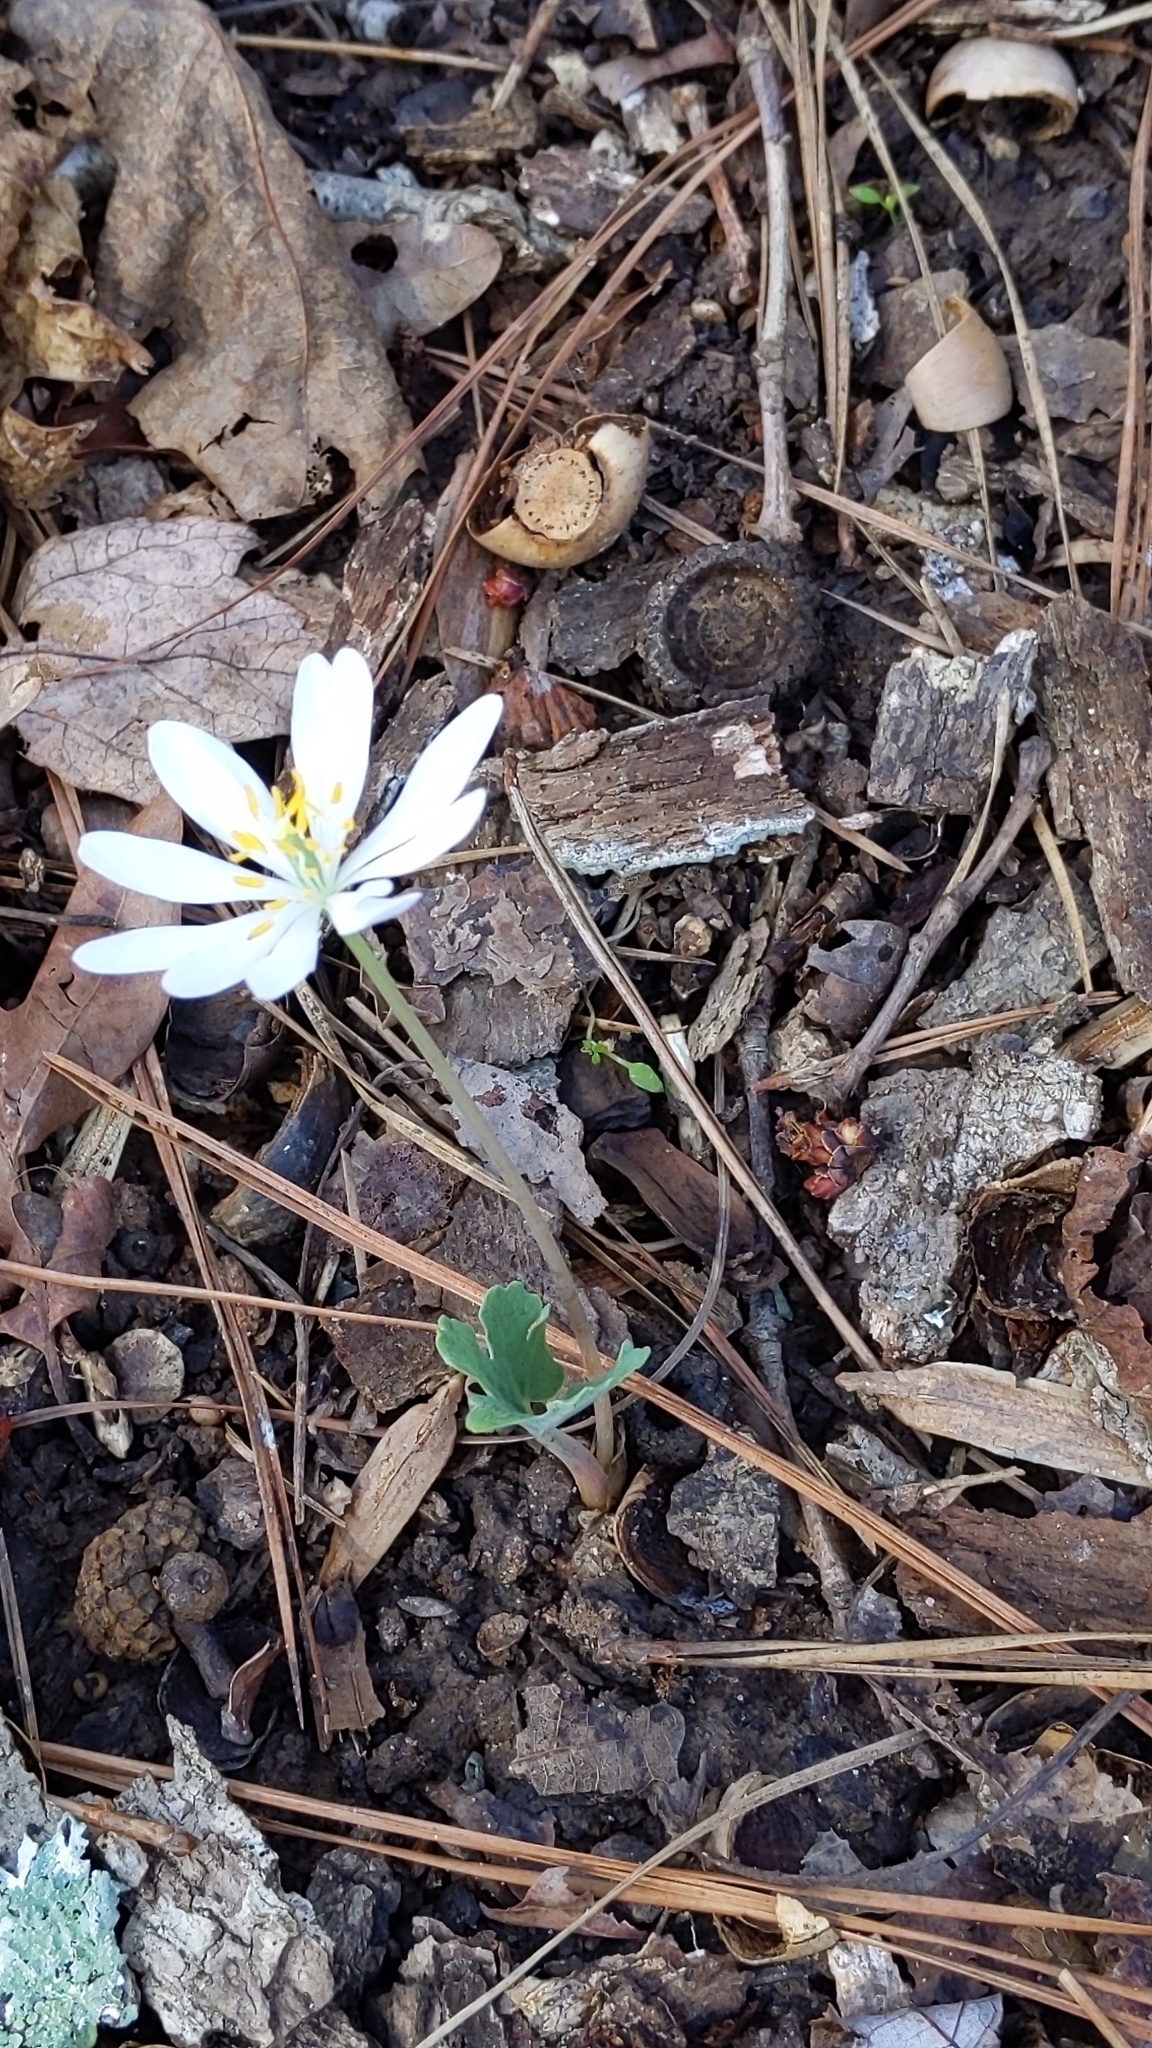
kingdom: Plantae
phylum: Tracheophyta
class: Magnoliopsida
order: Ranunculales
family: Papaveraceae
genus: Sanguinaria
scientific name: Sanguinaria canadensis
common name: Bloodroot
